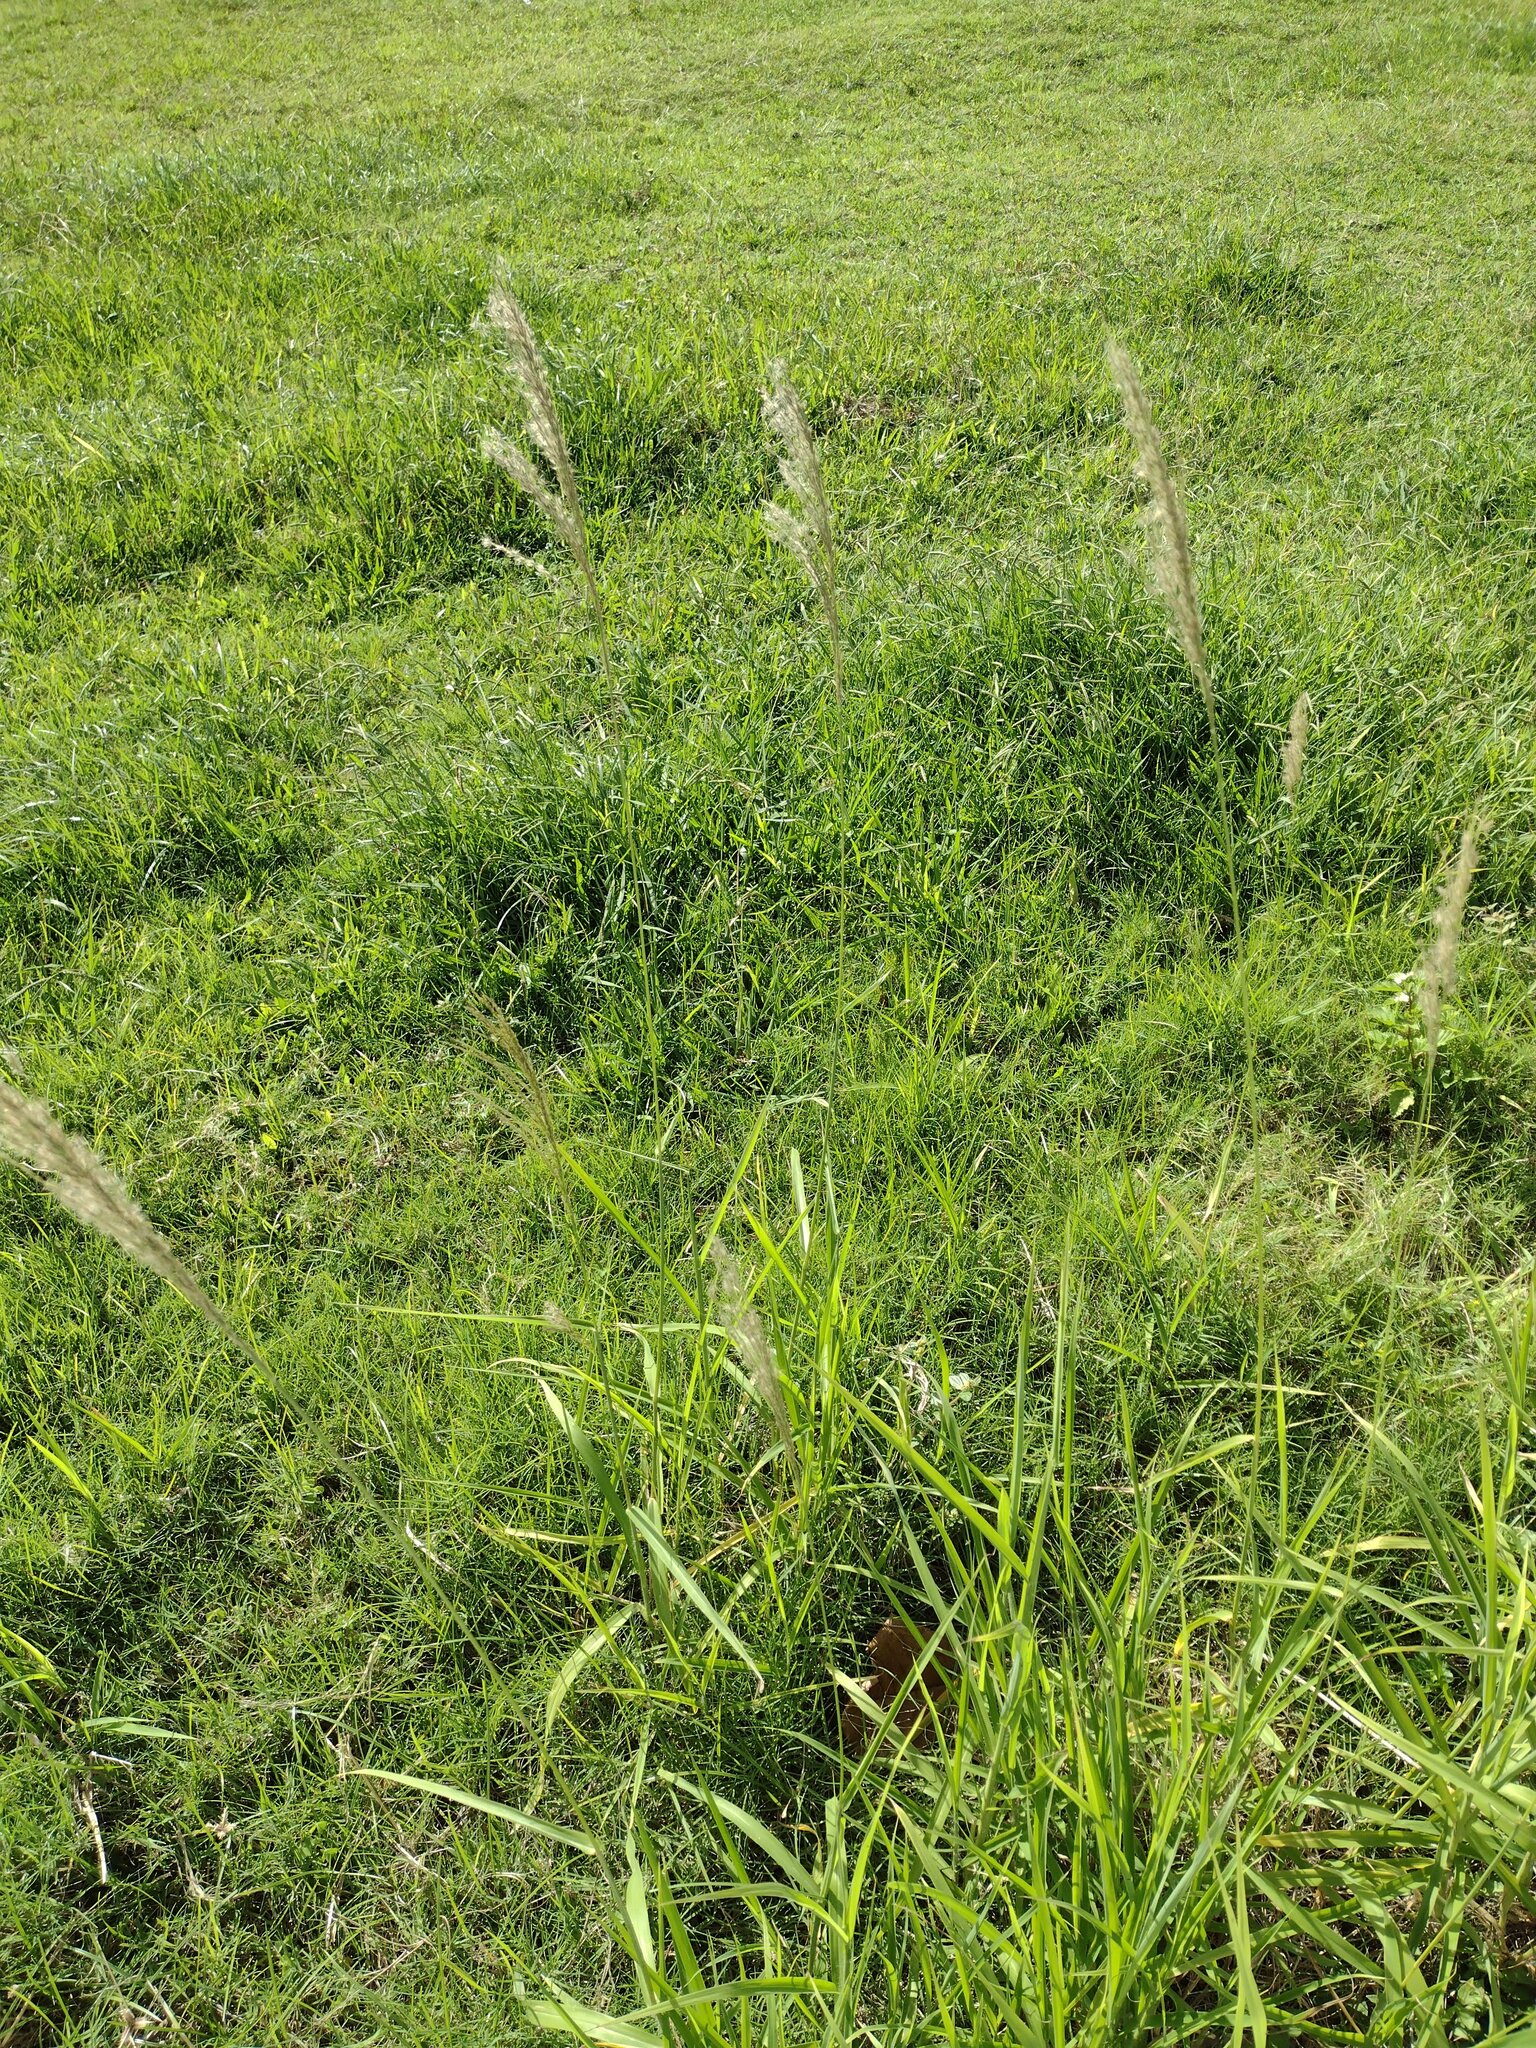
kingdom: Plantae
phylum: Tracheophyta
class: Liliopsida
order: Poales
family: Poaceae
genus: Digitaria
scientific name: Digitaria insularis
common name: Sourgrass
